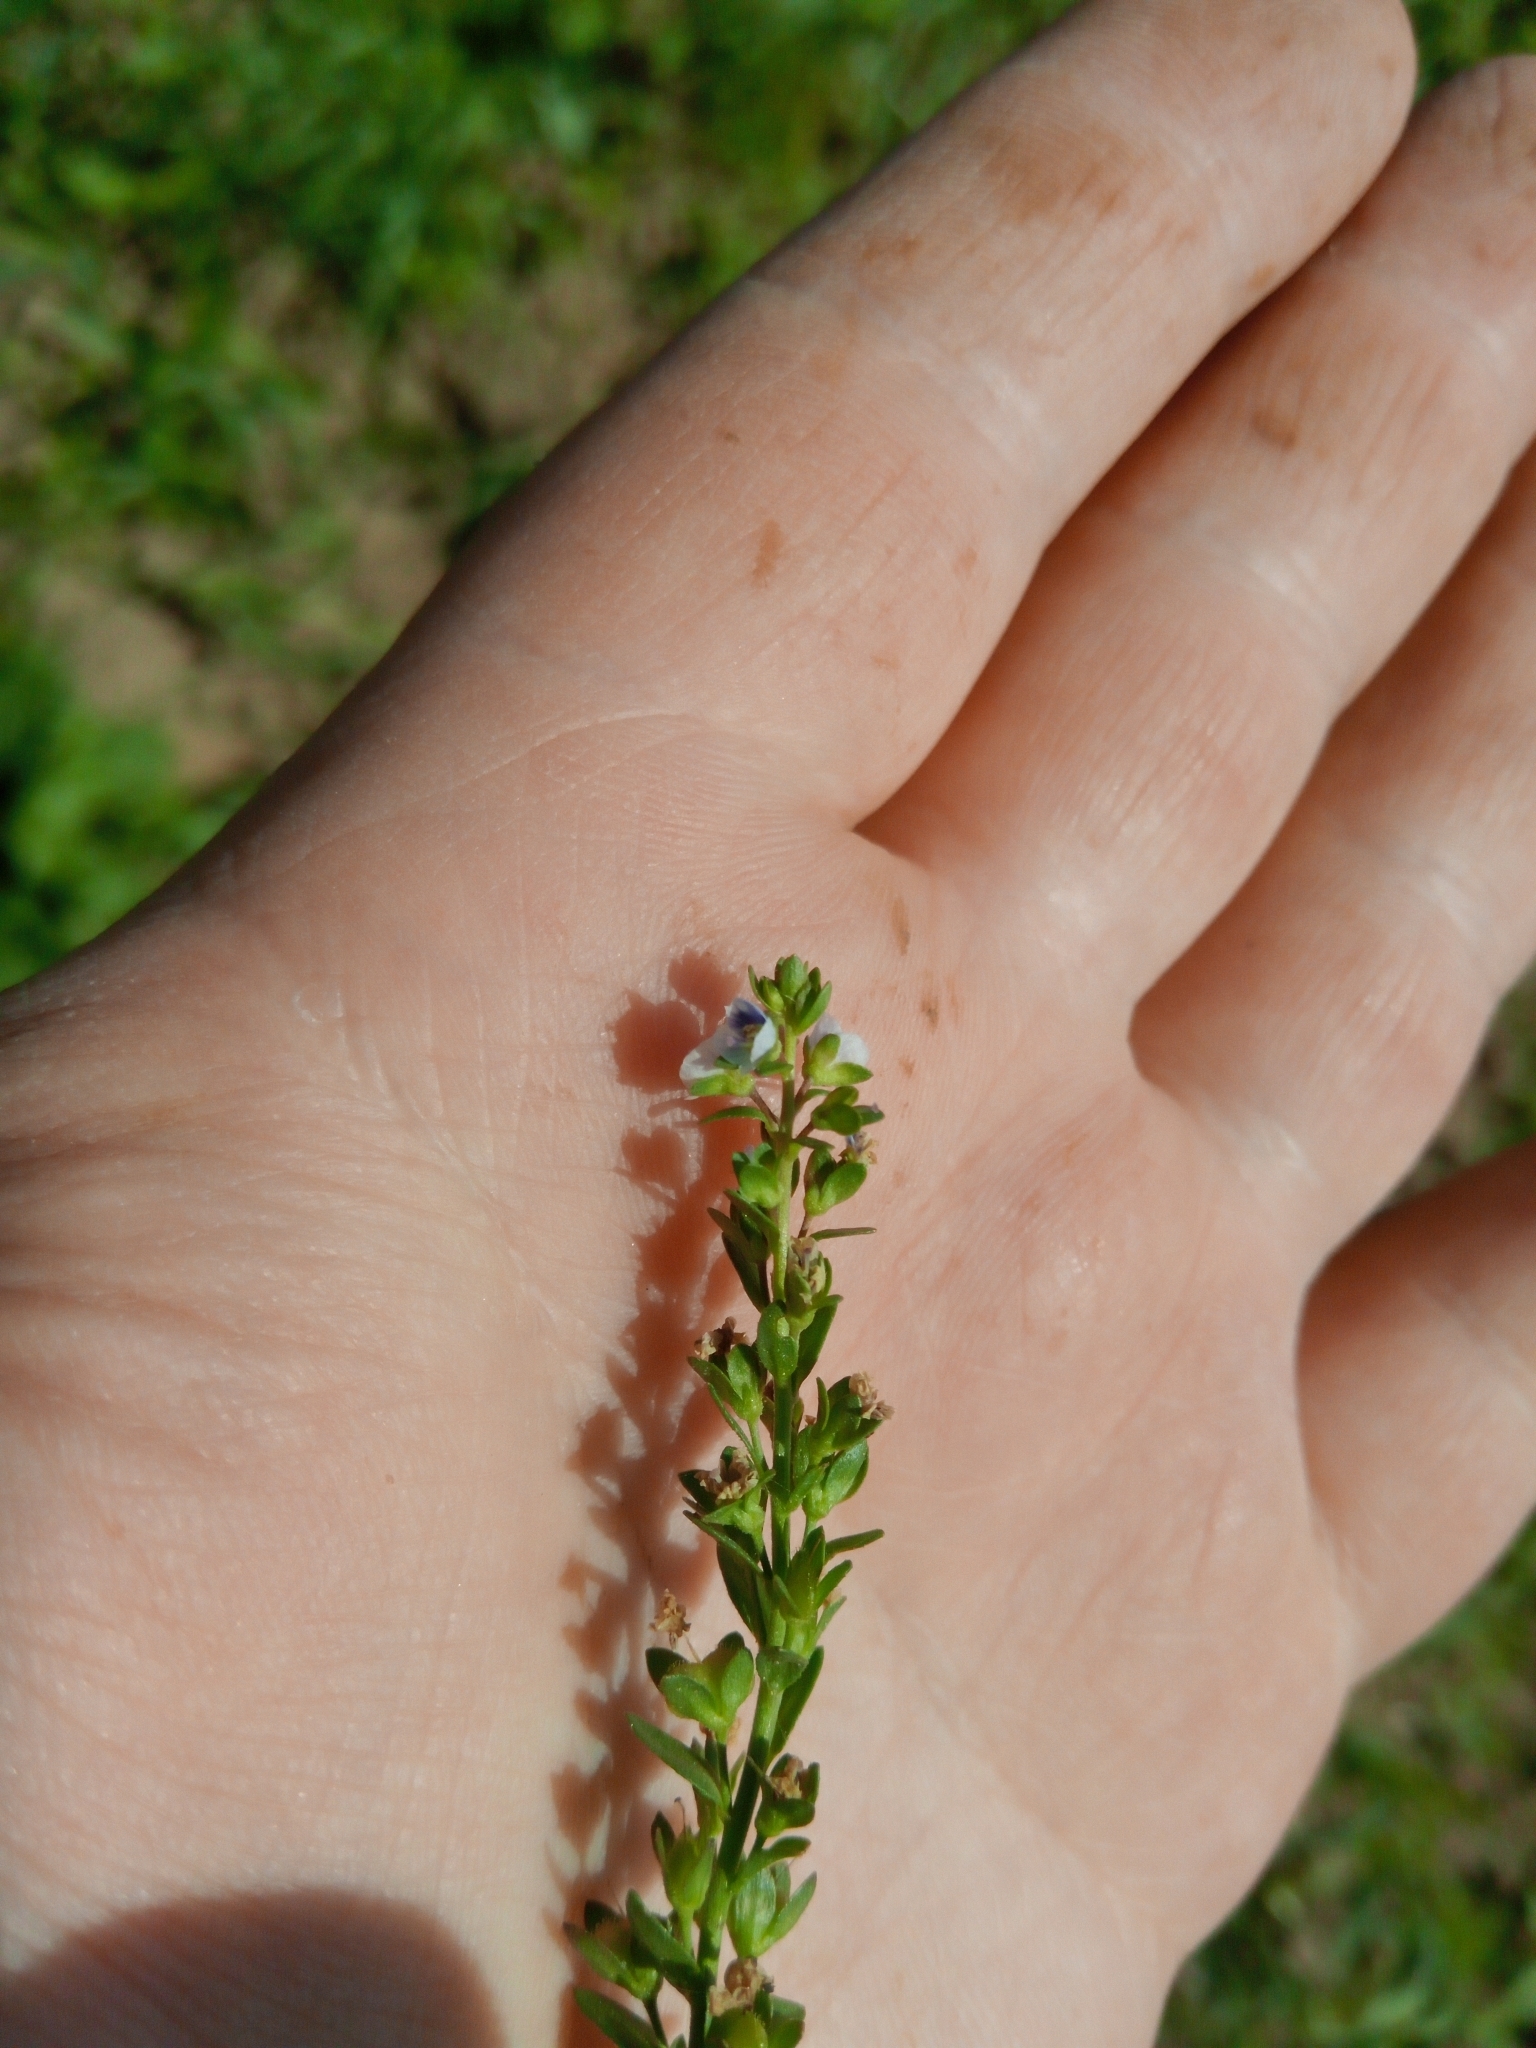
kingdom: Plantae
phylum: Tracheophyta
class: Magnoliopsida
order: Lamiales
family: Plantaginaceae
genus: Veronica
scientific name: Veronica serpyllifolia
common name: Thyme-leaved speedwell
